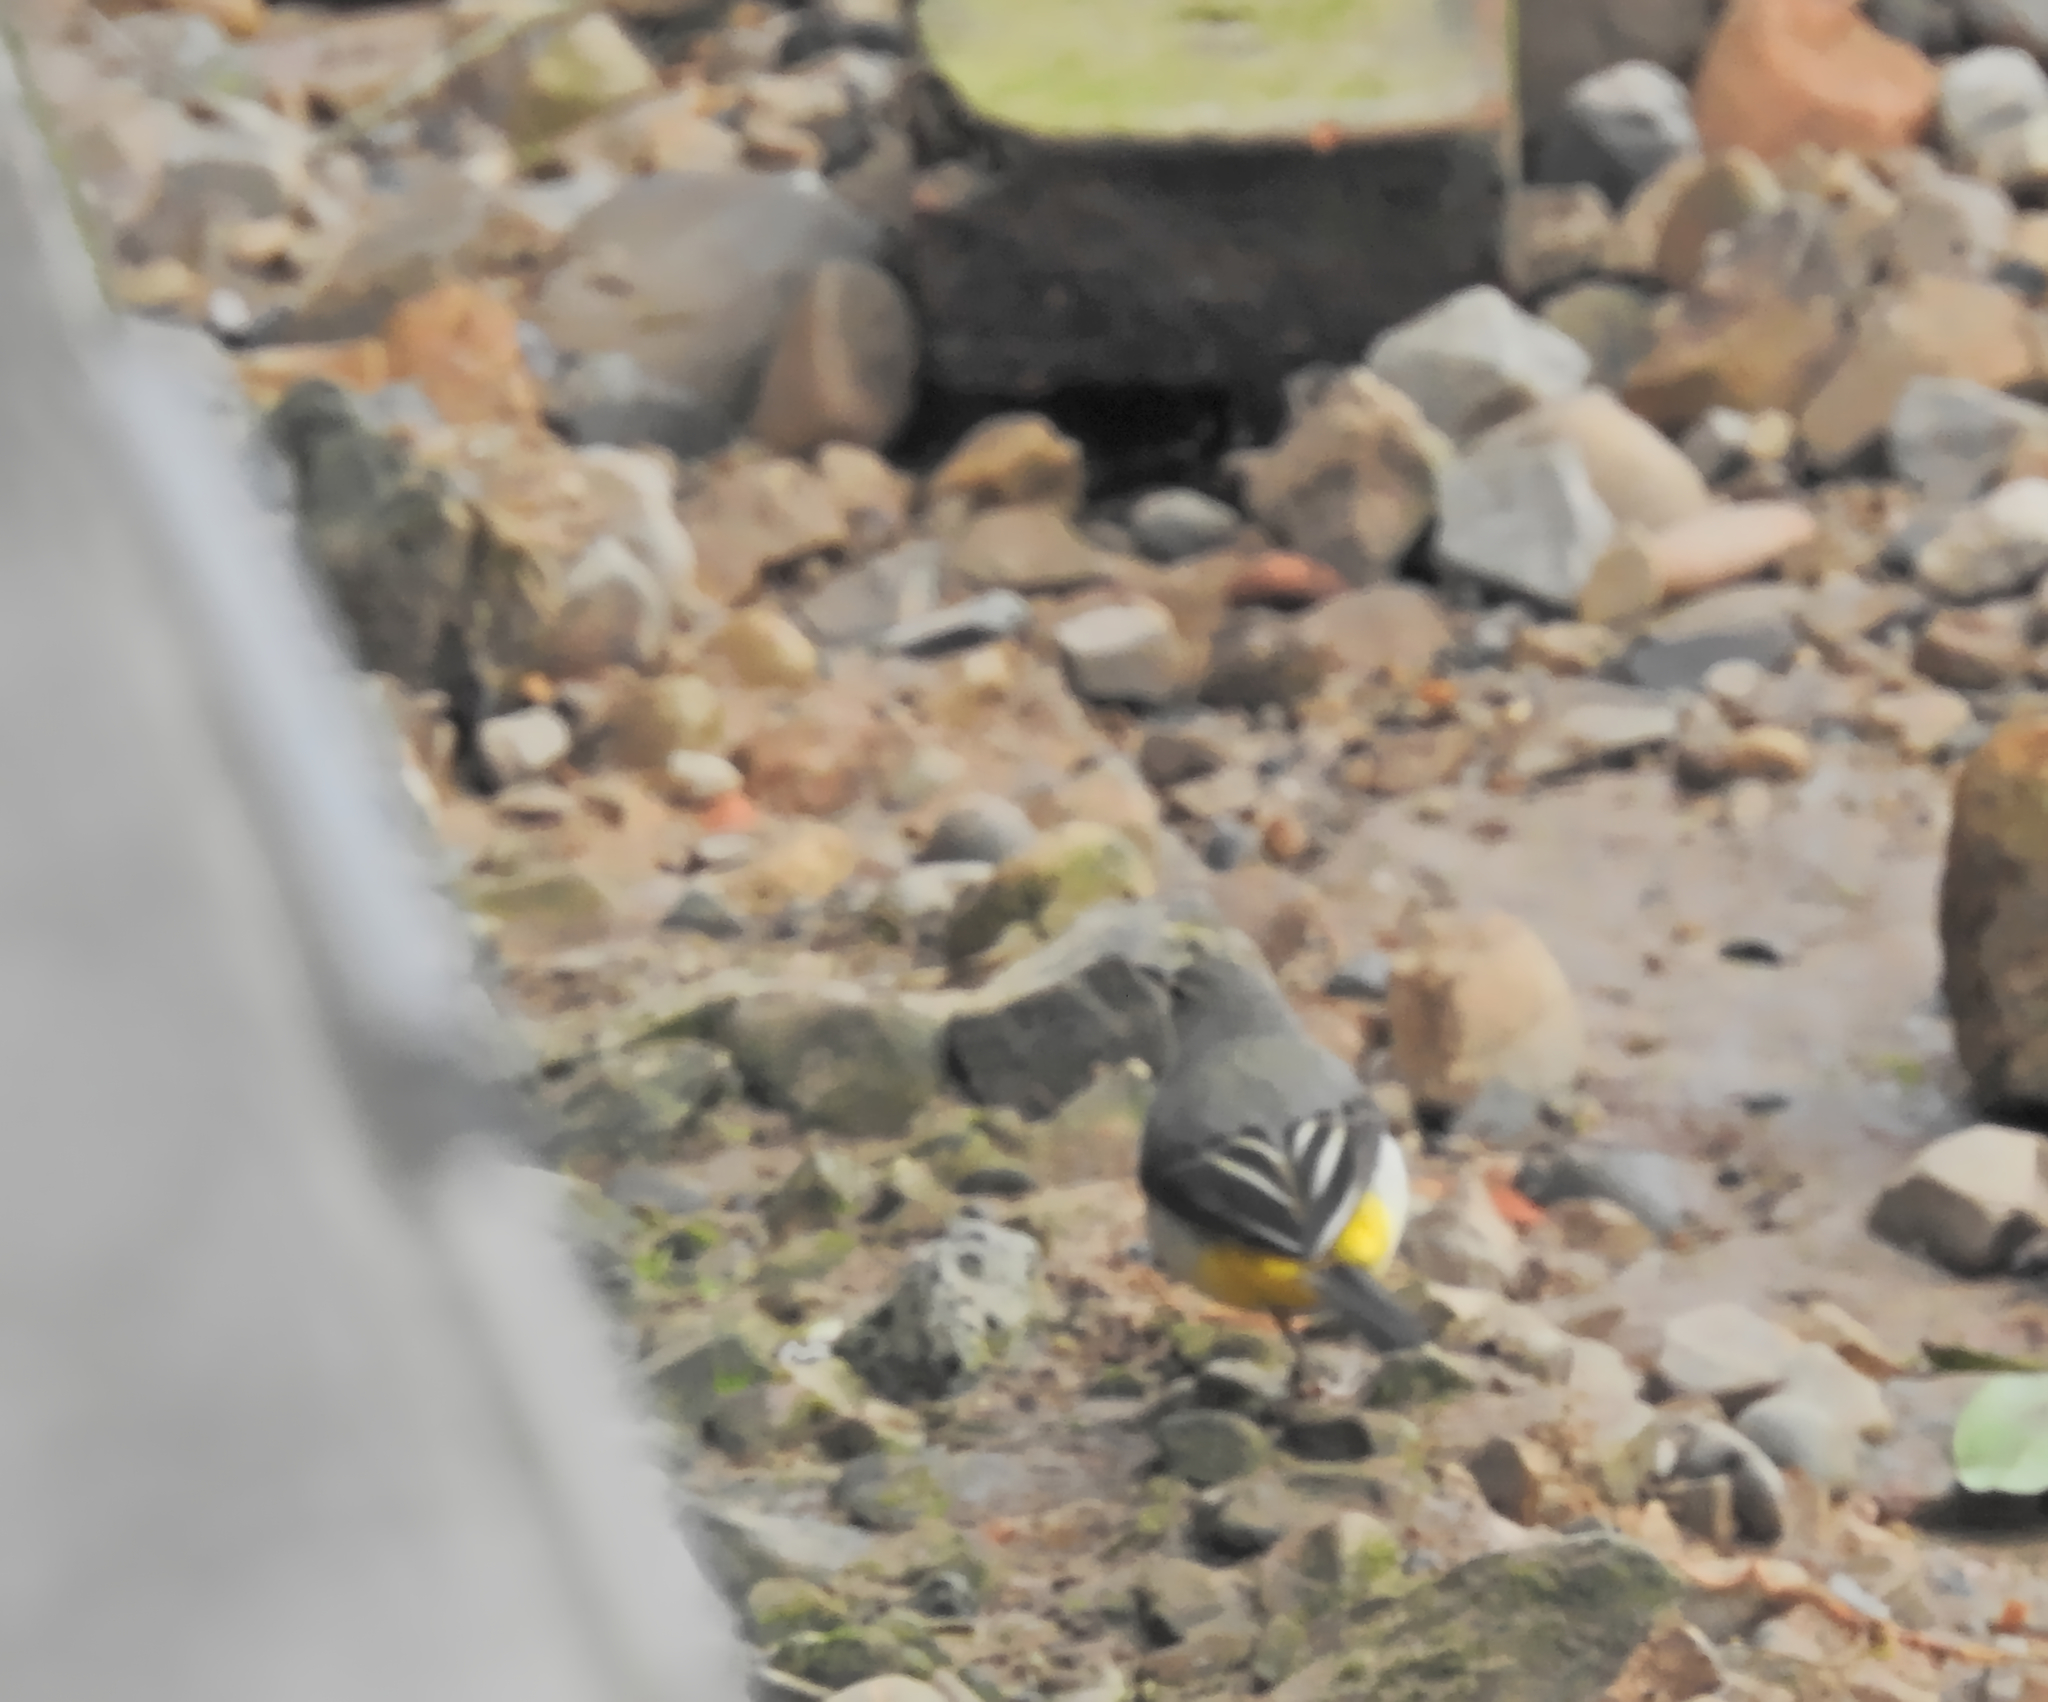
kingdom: Animalia
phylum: Chordata
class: Aves
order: Passeriformes
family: Motacillidae
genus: Motacilla
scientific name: Motacilla cinerea
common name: Grey wagtail
